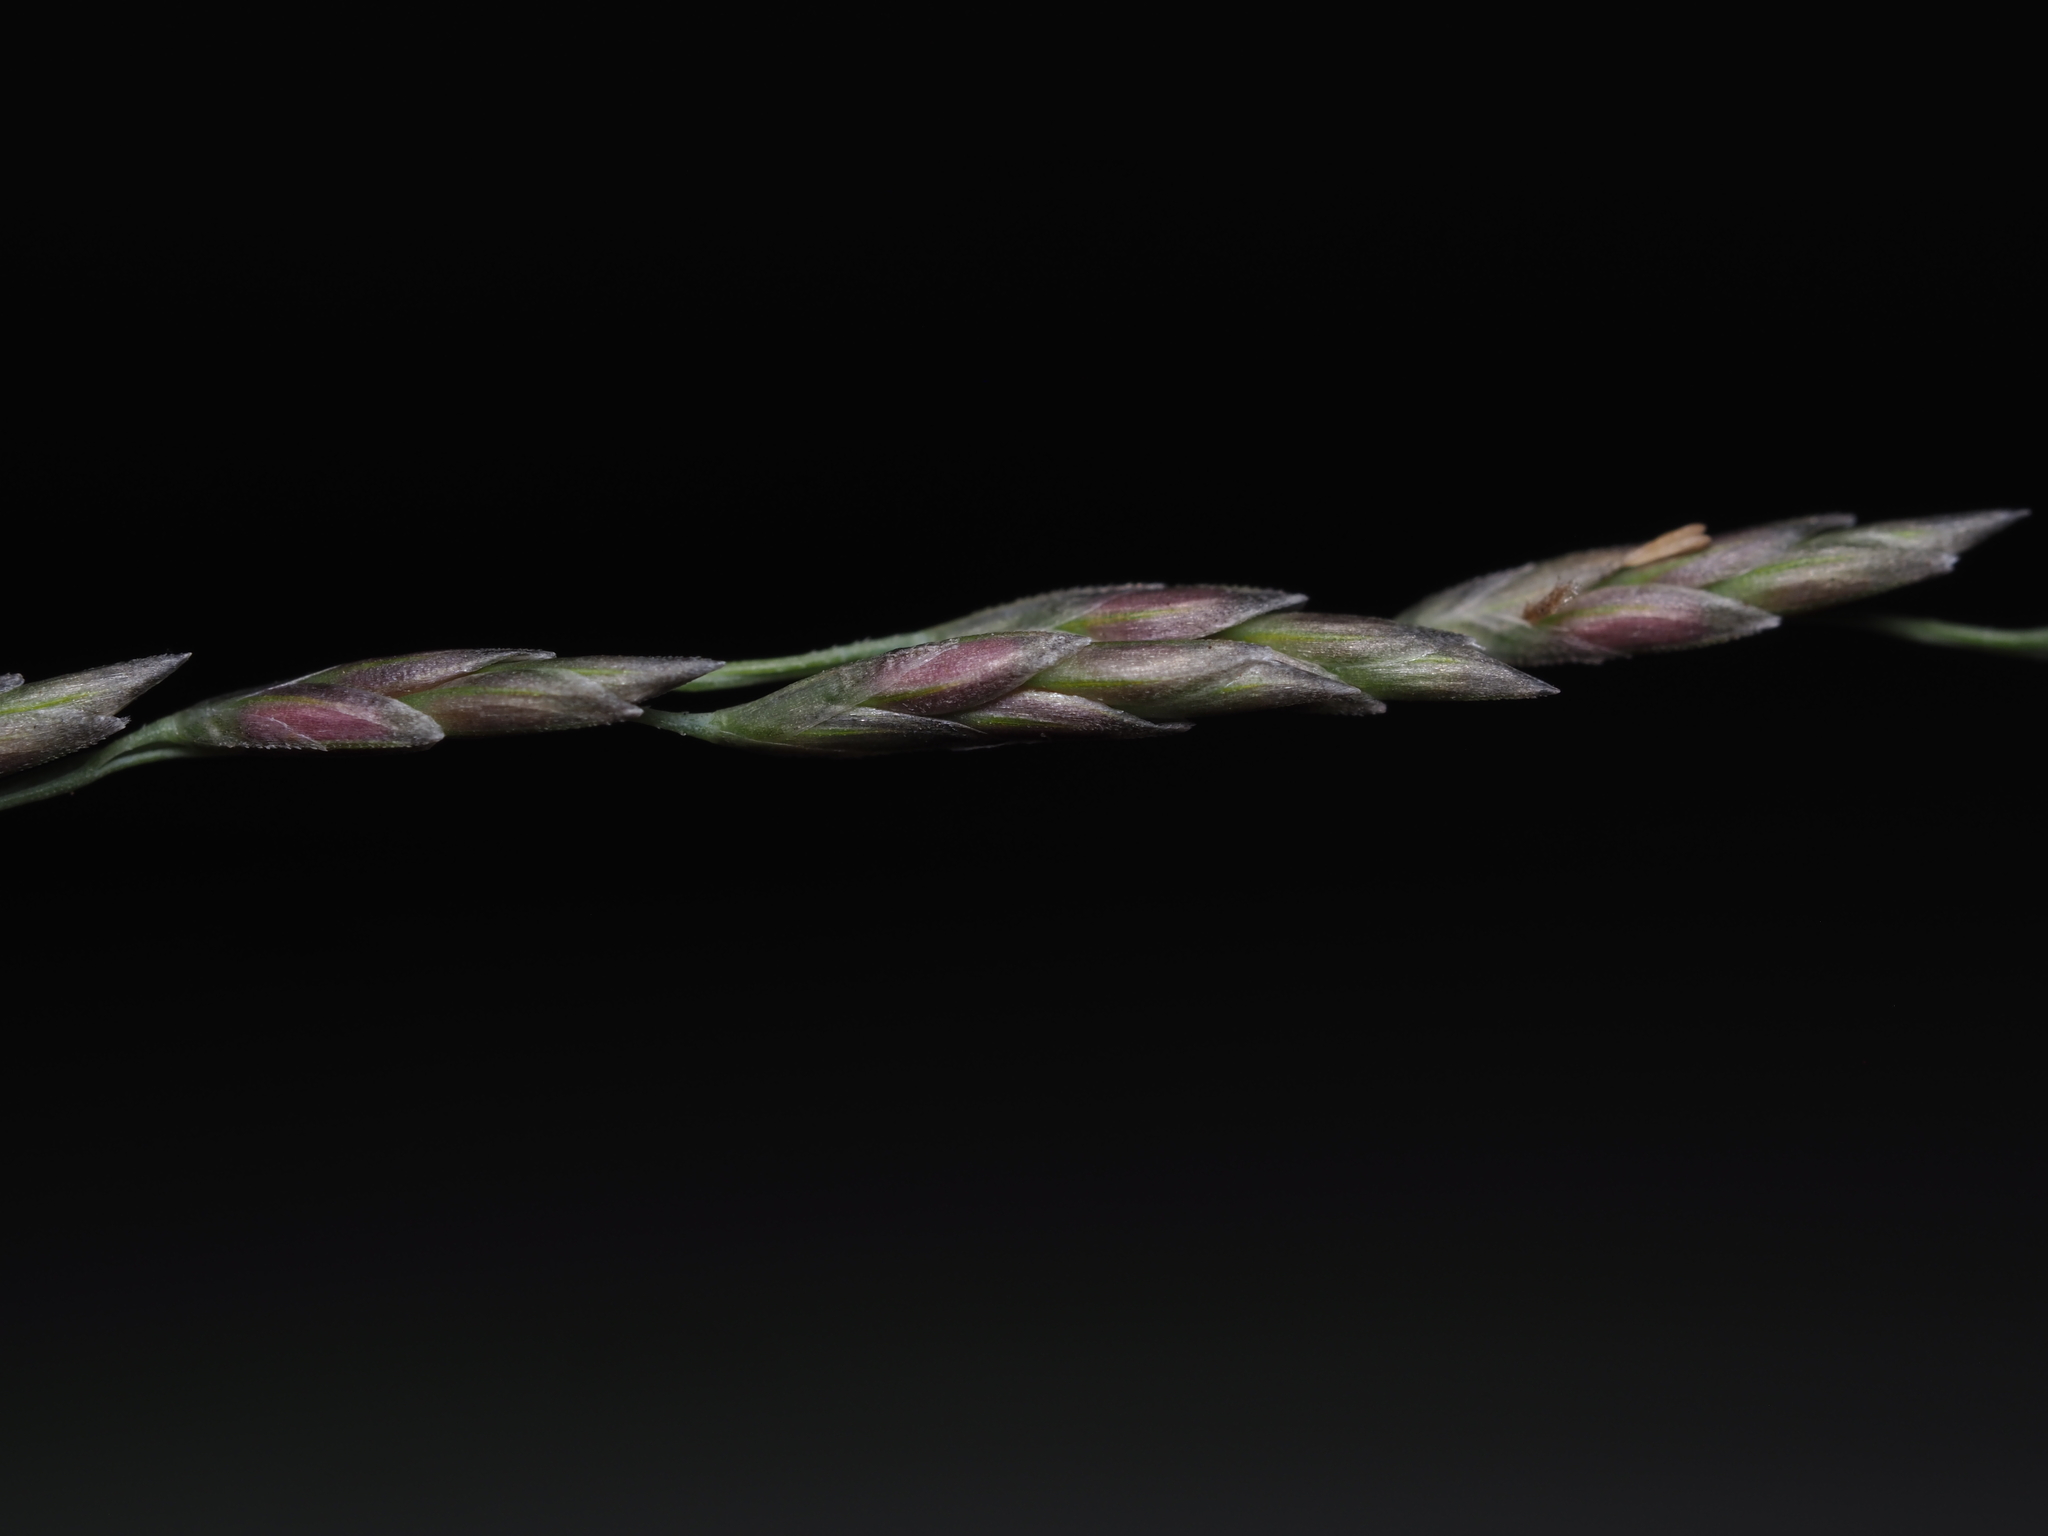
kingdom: Plantae
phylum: Tracheophyta
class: Liliopsida
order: Poales
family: Poaceae
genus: Eragrostis
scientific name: Eragrostis curvula
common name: African love-grass
